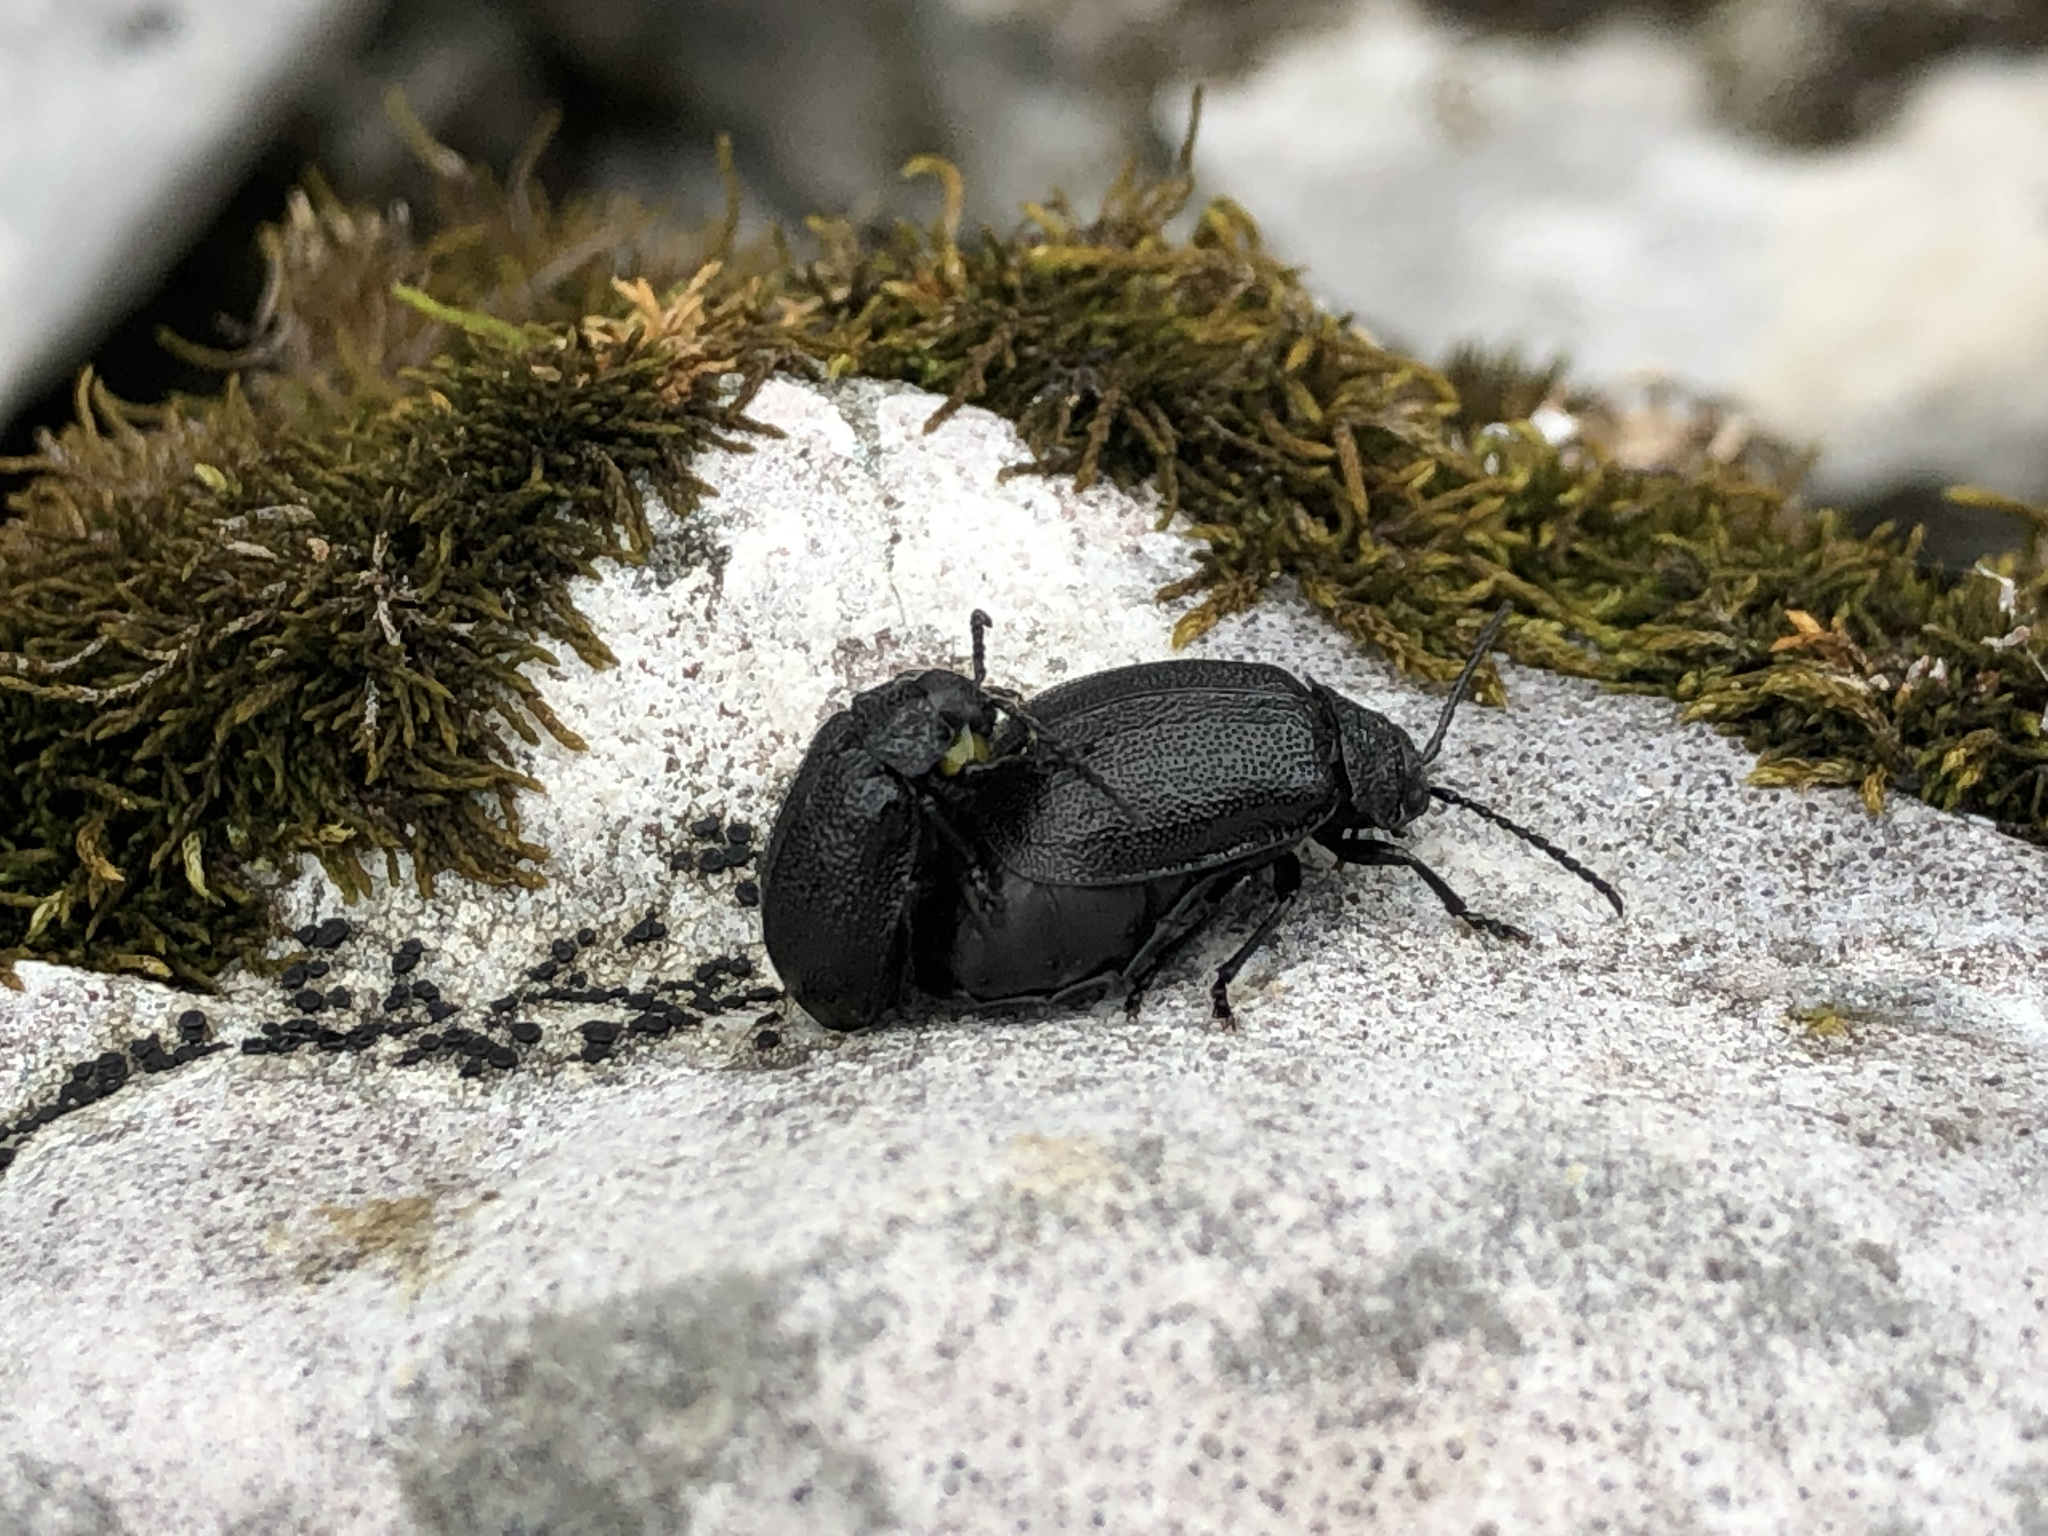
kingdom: Animalia
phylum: Arthropoda
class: Insecta
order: Coleoptera
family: Chrysomelidae
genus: Galeruca
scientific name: Galeruca tanaceti
